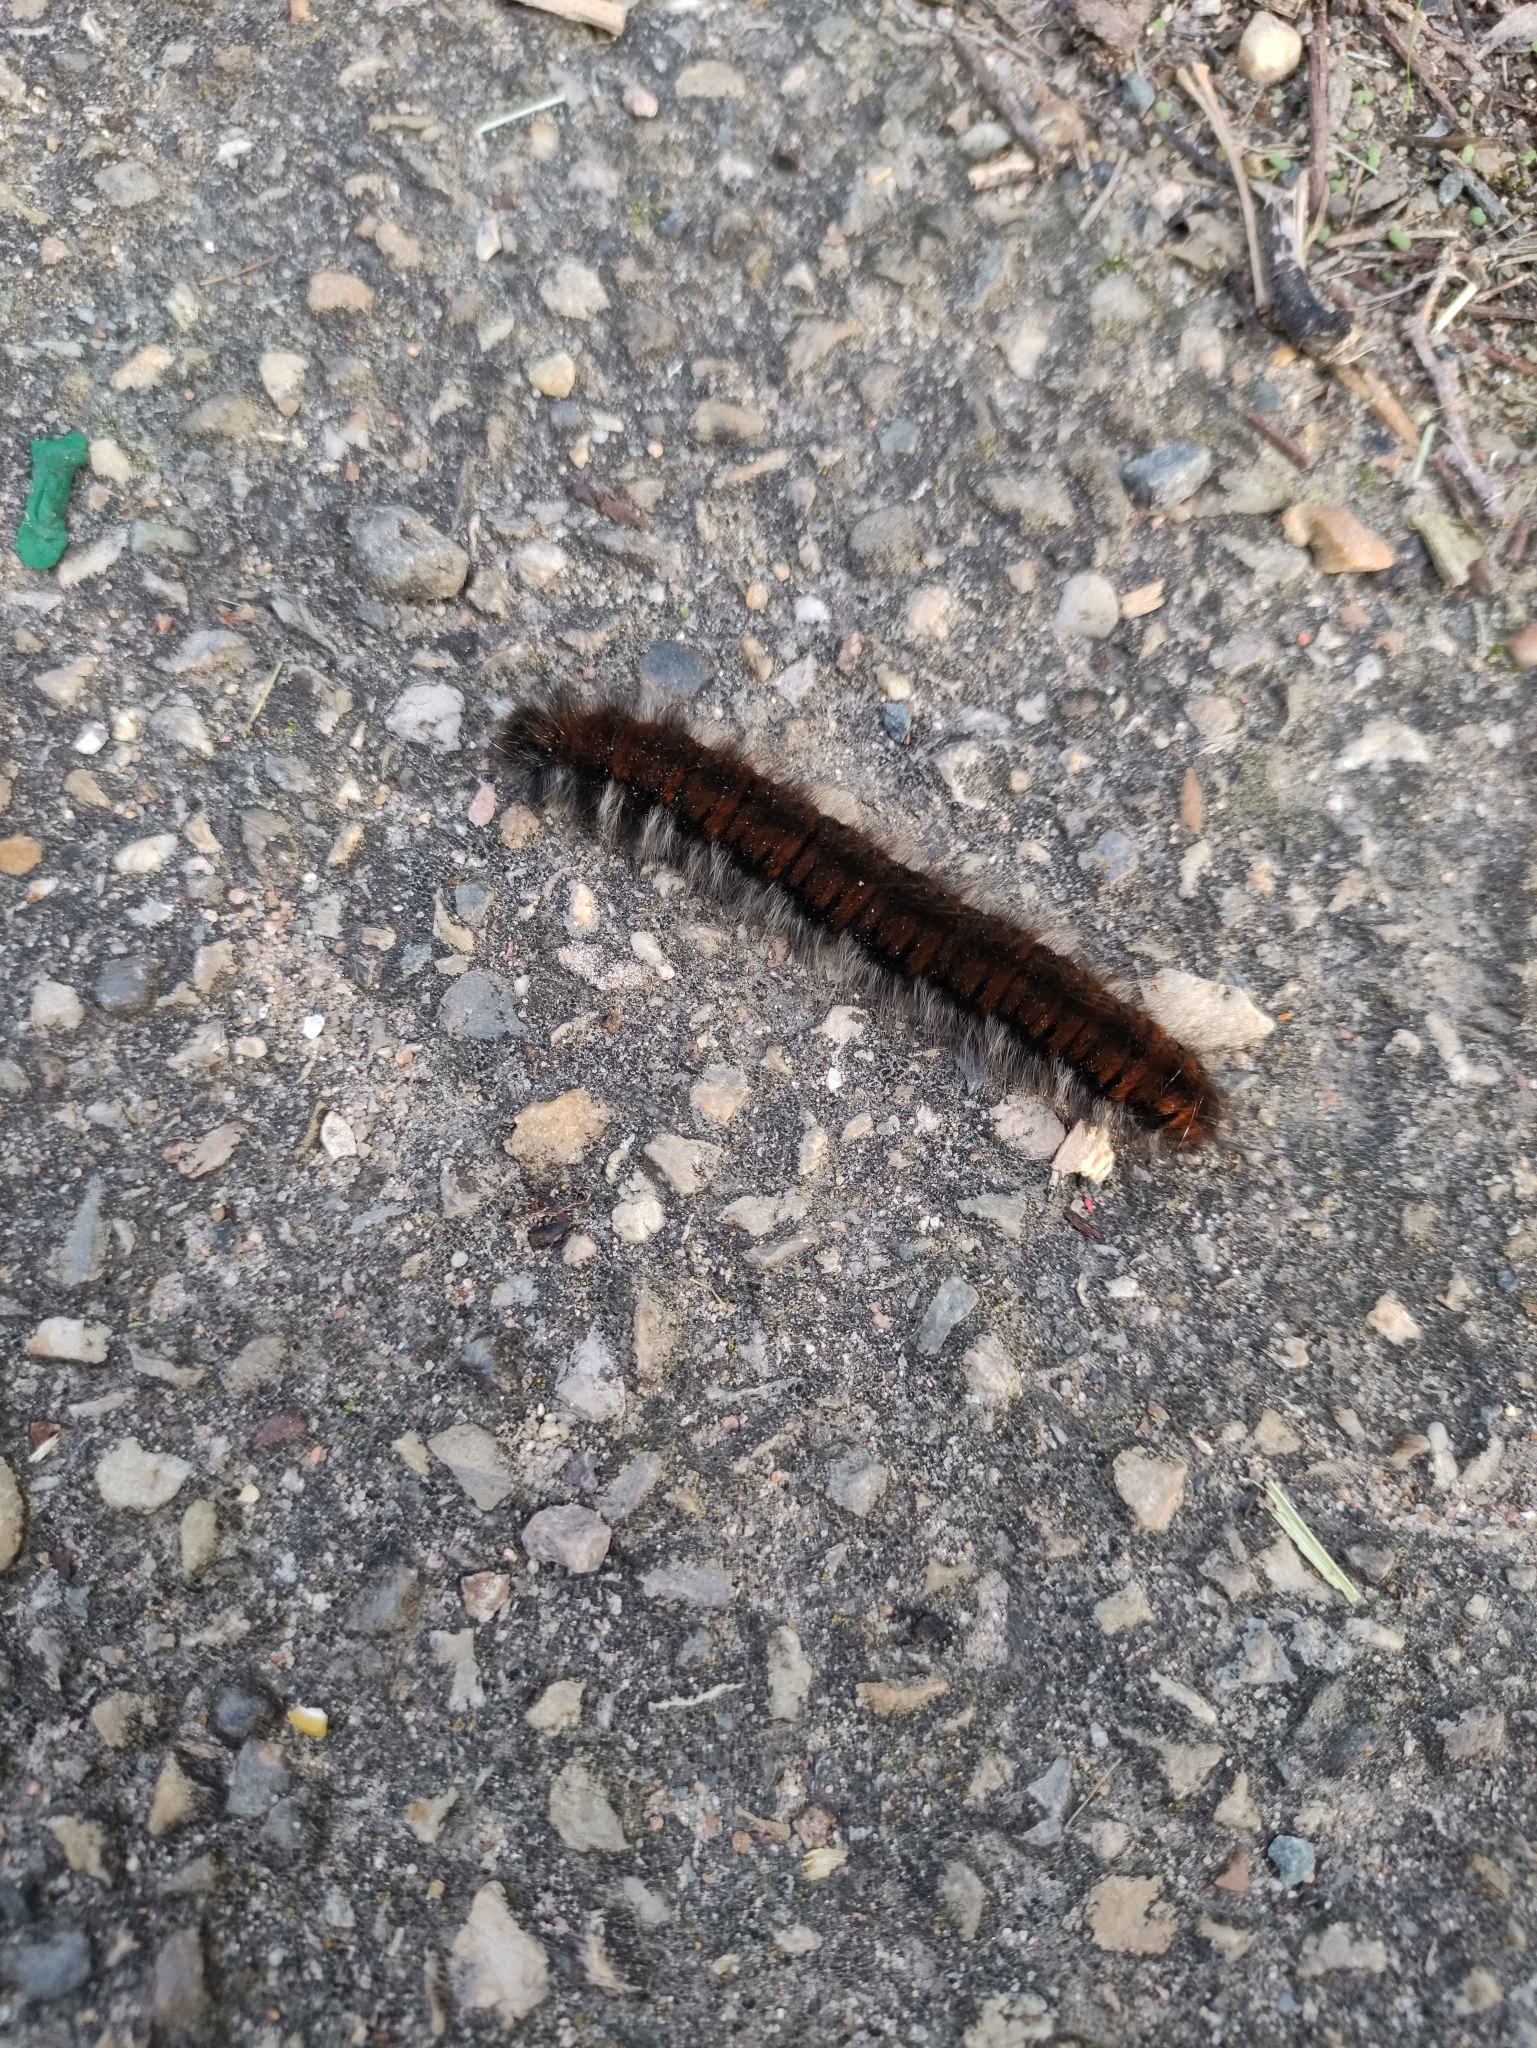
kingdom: Animalia
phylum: Arthropoda
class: Insecta
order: Lepidoptera
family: Lasiocampidae
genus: Macrothylacia
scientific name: Macrothylacia rubi
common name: Fox moth
